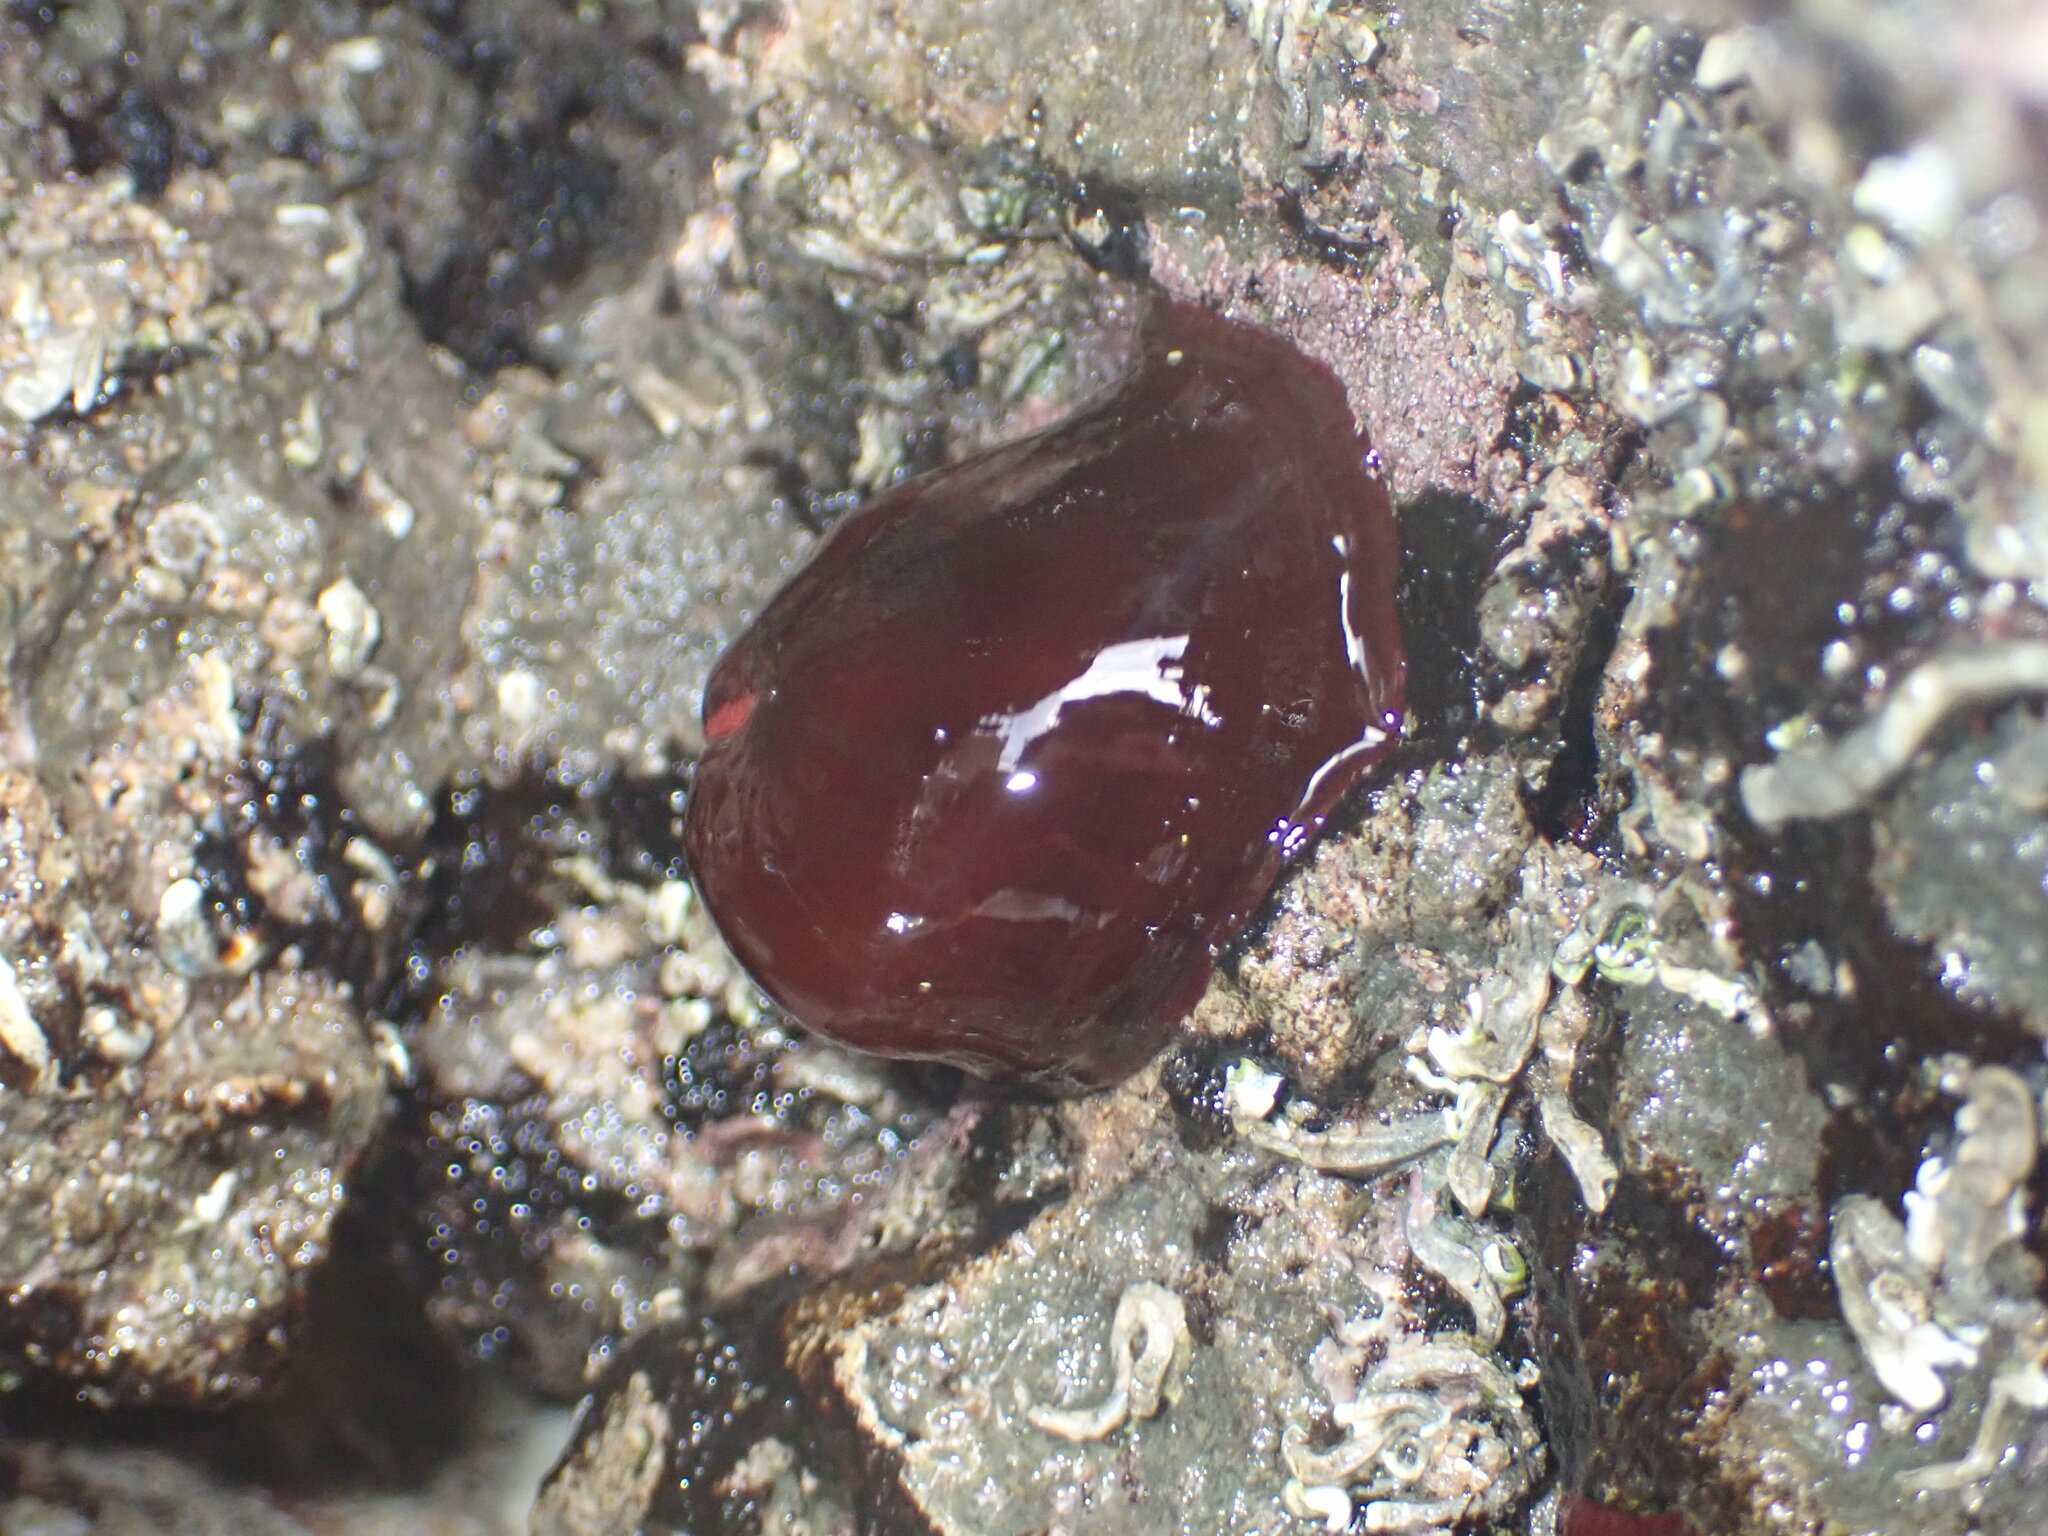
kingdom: Animalia
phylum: Cnidaria
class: Anthozoa
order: Actiniaria
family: Actiniidae
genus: Actinia
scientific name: Actinia tenebrosa
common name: Waratah anemone
